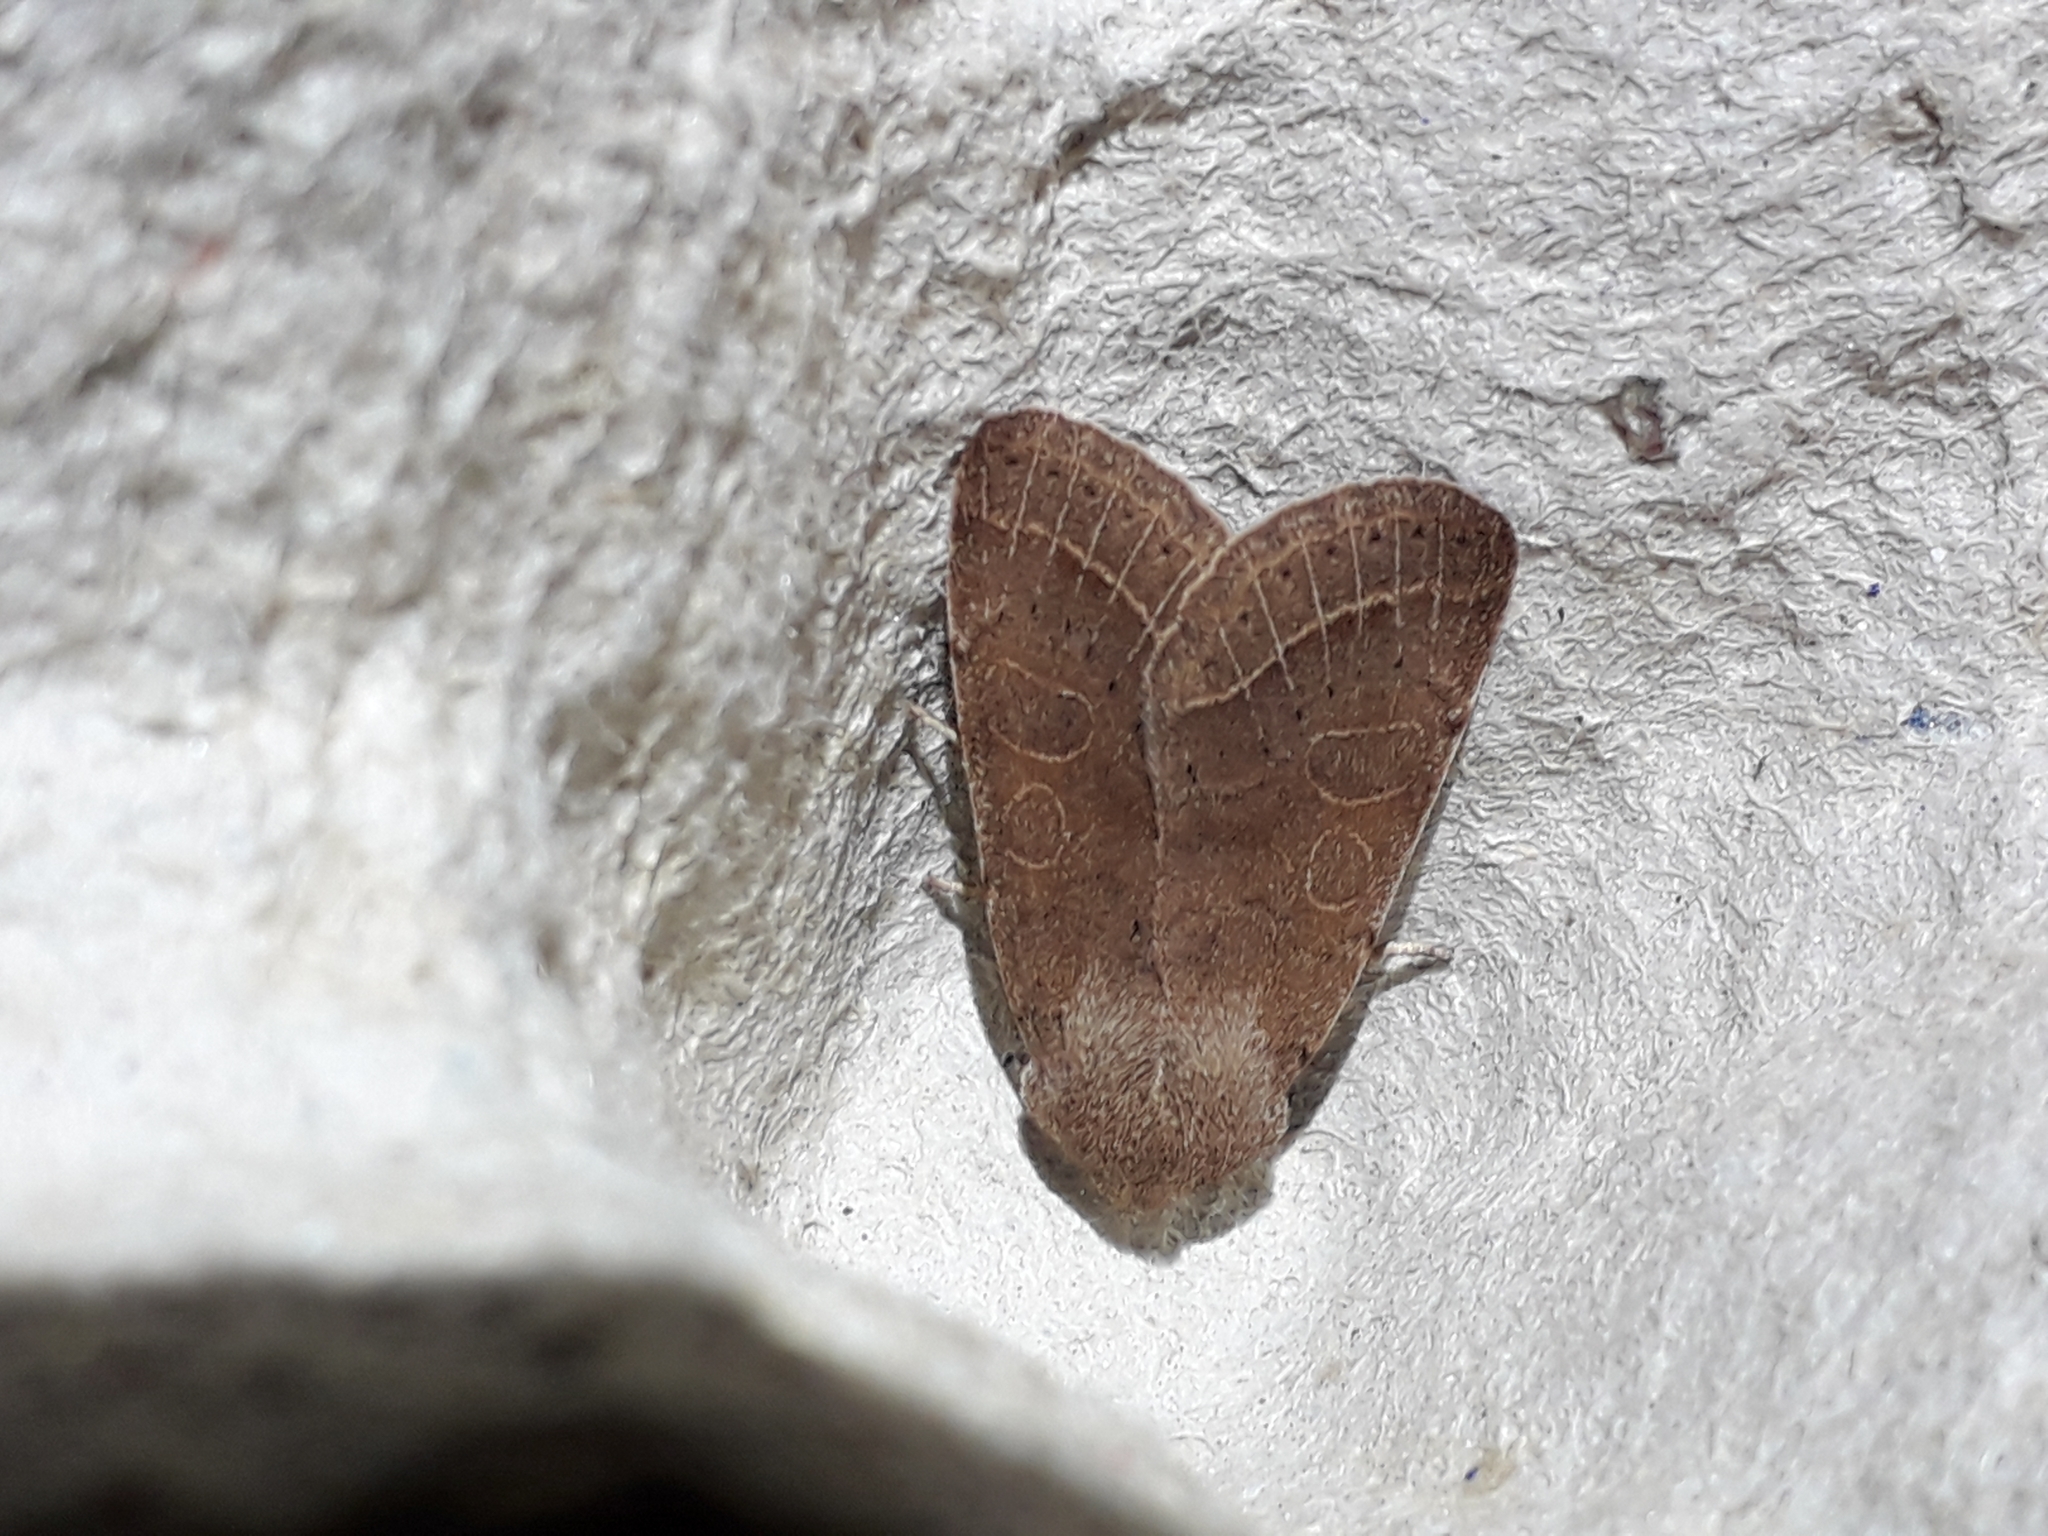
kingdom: Animalia
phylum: Arthropoda
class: Insecta
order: Lepidoptera
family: Noctuidae
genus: Orthosia
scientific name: Orthosia cerasi
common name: Common quaker
